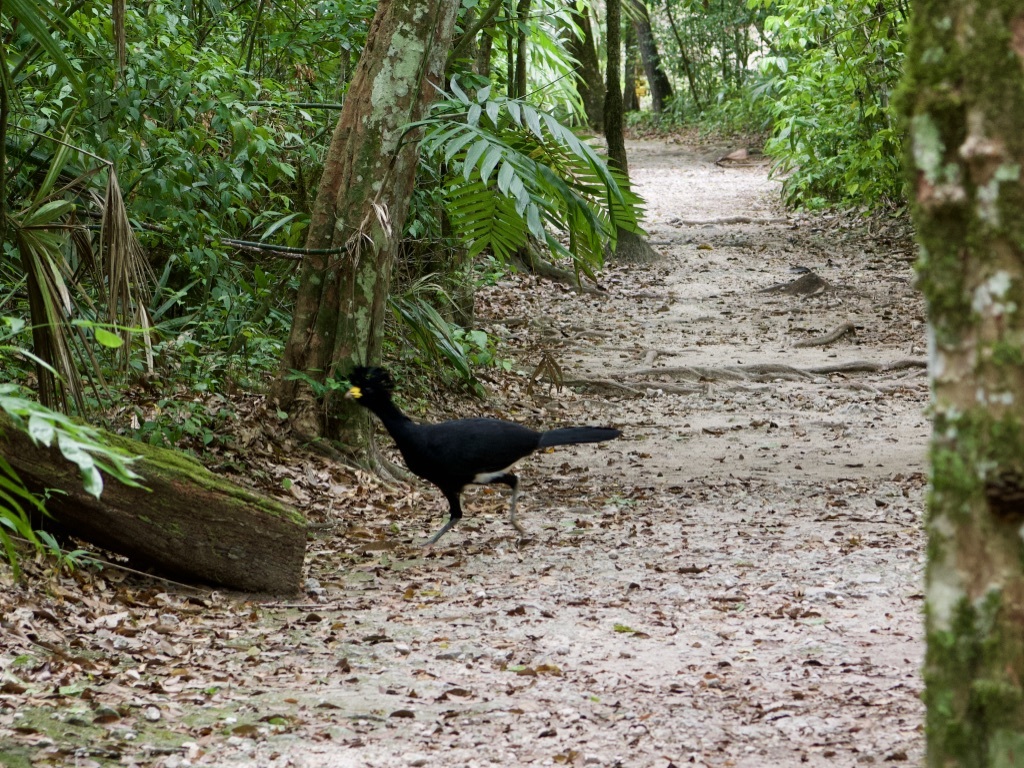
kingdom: Animalia
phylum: Chordata
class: Aves
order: Galliformes
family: Cracidae
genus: Crax
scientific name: Crax rubra
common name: Great curassow
